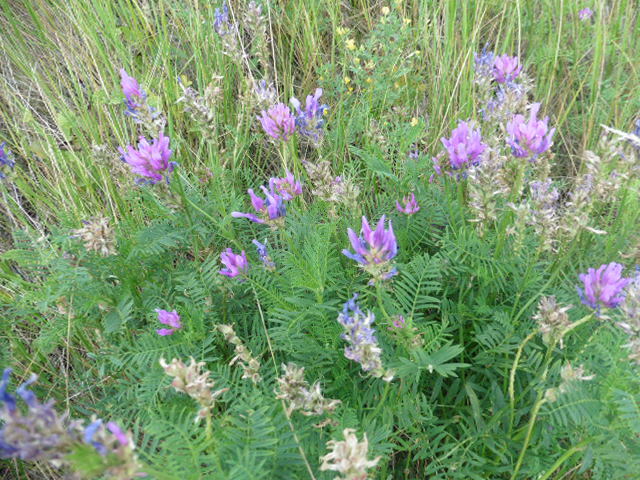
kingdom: Plantae
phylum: Tracheophyta
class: Magnoliopsida
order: Fabales
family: Fabaceae
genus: Astragalus
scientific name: Astragalus onobrychis
